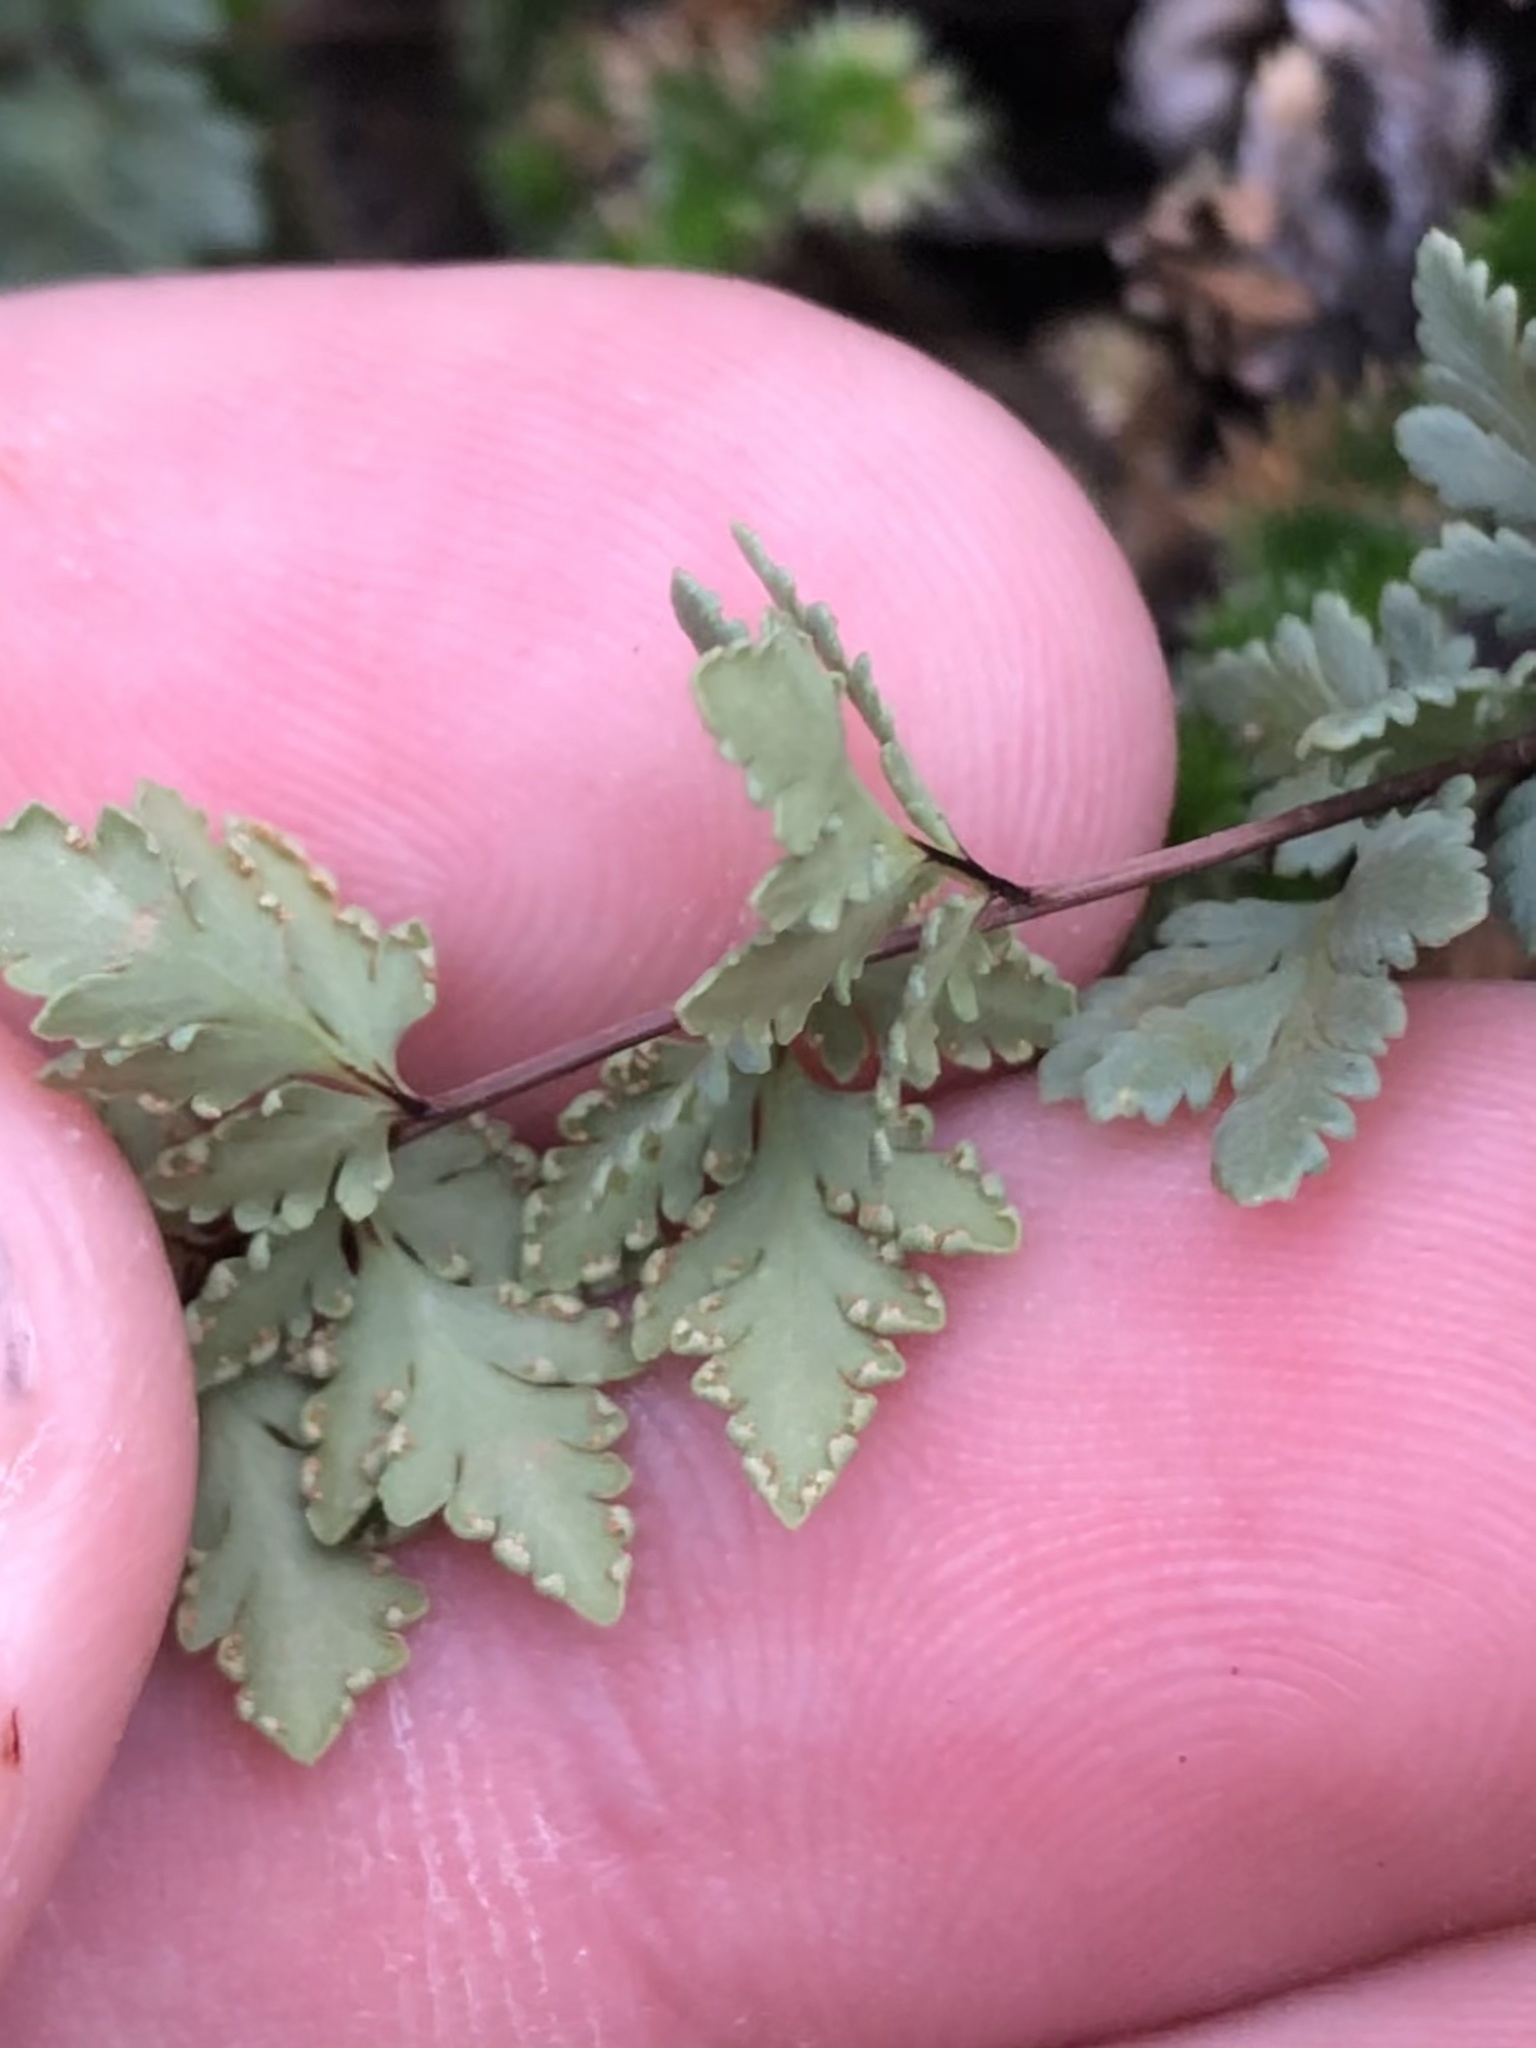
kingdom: Plantae
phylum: Tracheophyta
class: Polypodiopsida
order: Polypodiales
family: Pteridaceae
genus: Myriopteris
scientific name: Myriopteris wrightii
